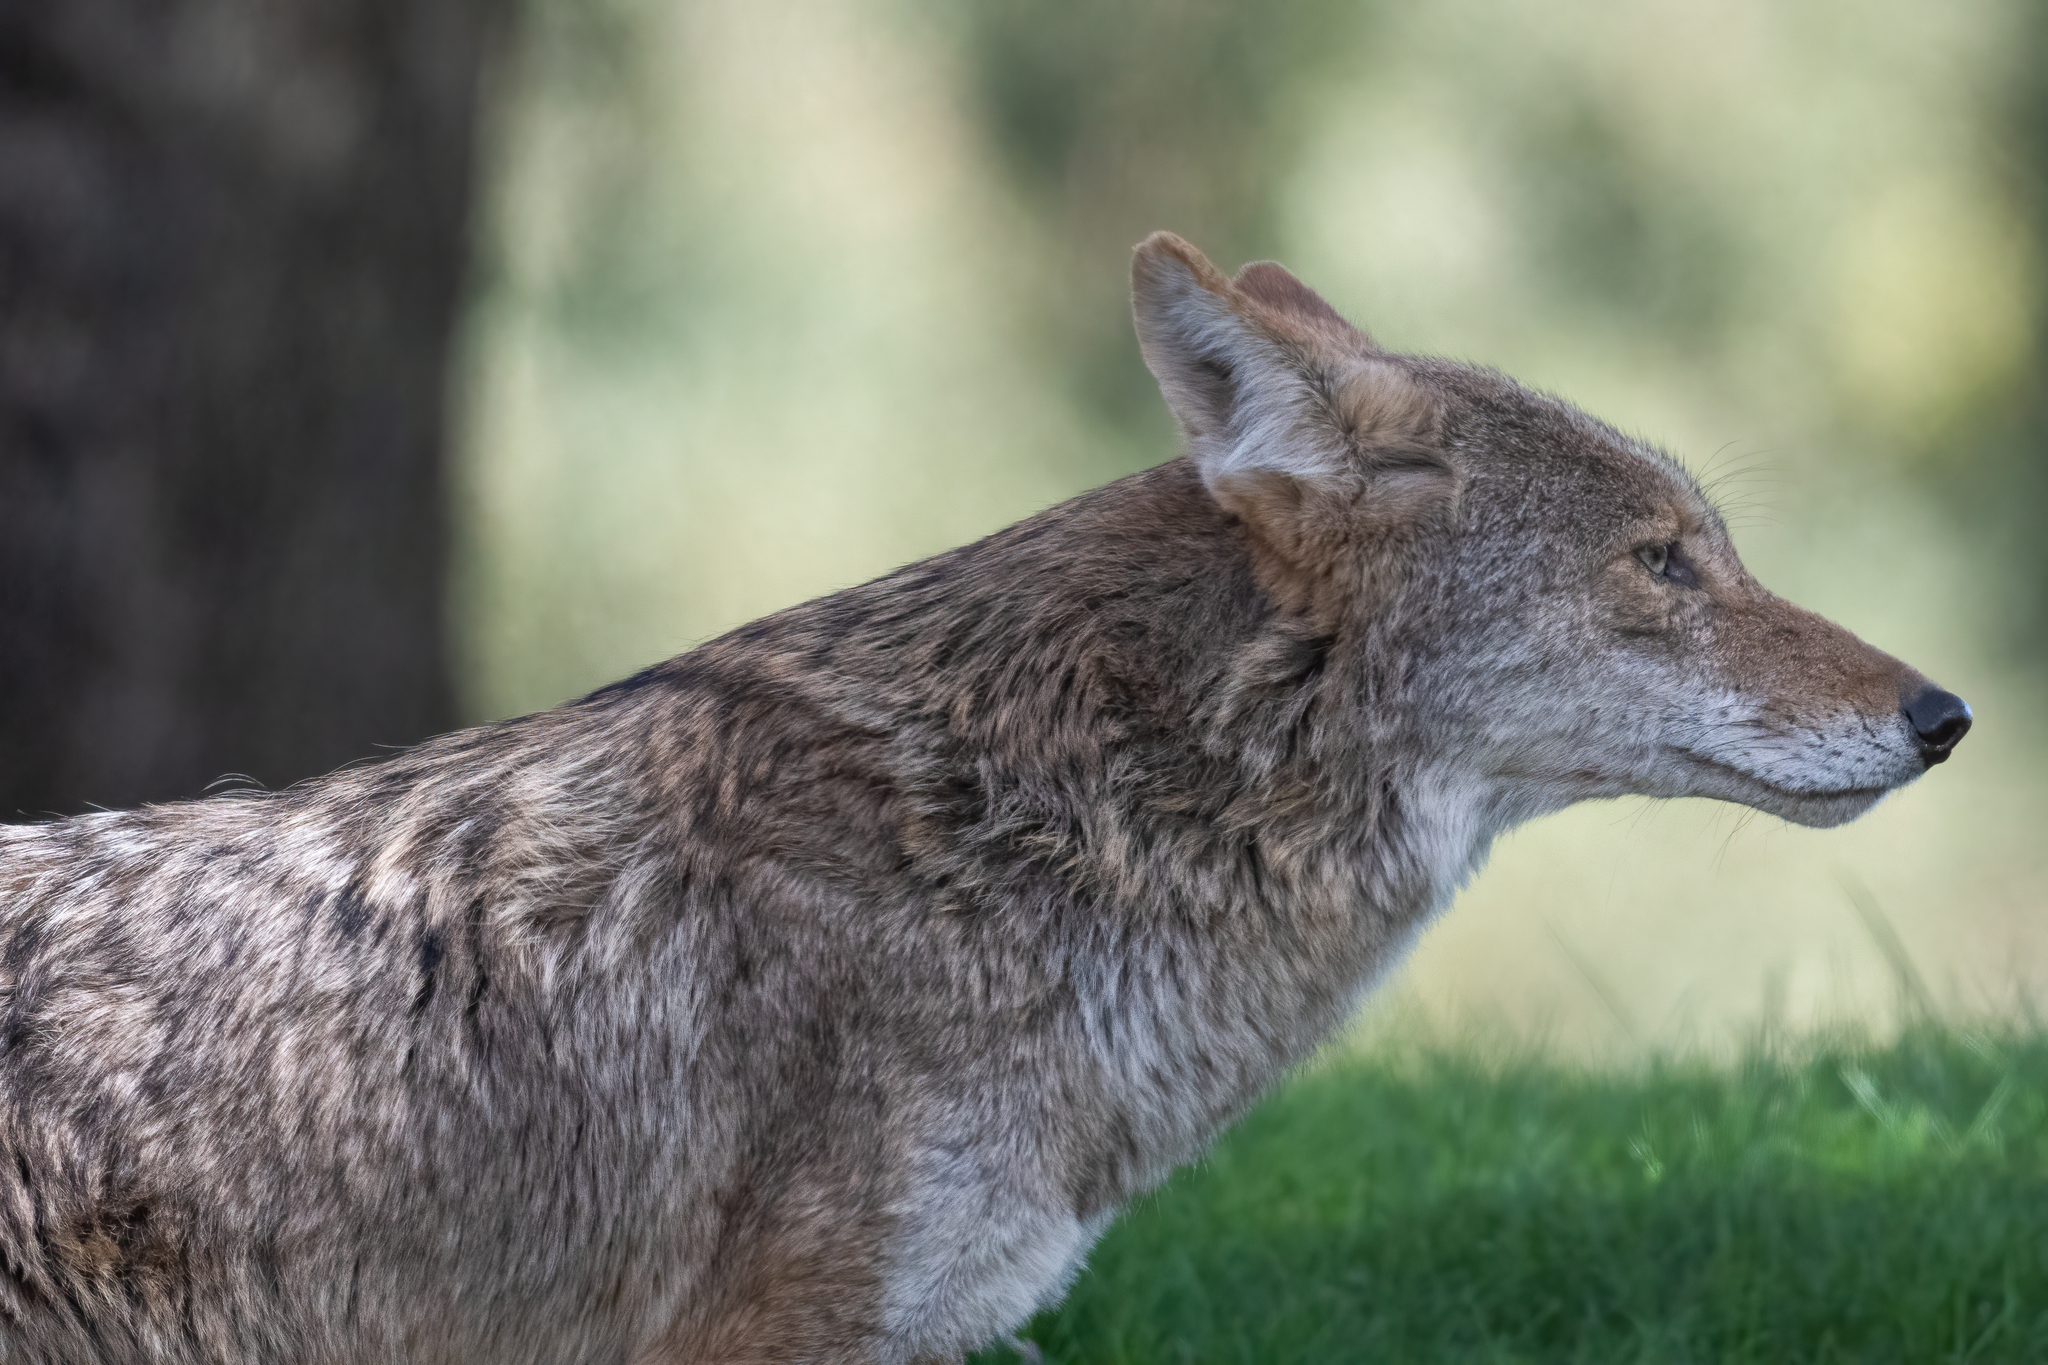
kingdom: Animalia
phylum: Chordata
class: Mammalia
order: Carnivora
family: Canidae
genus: Canis
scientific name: Canis latrans
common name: Coyote
